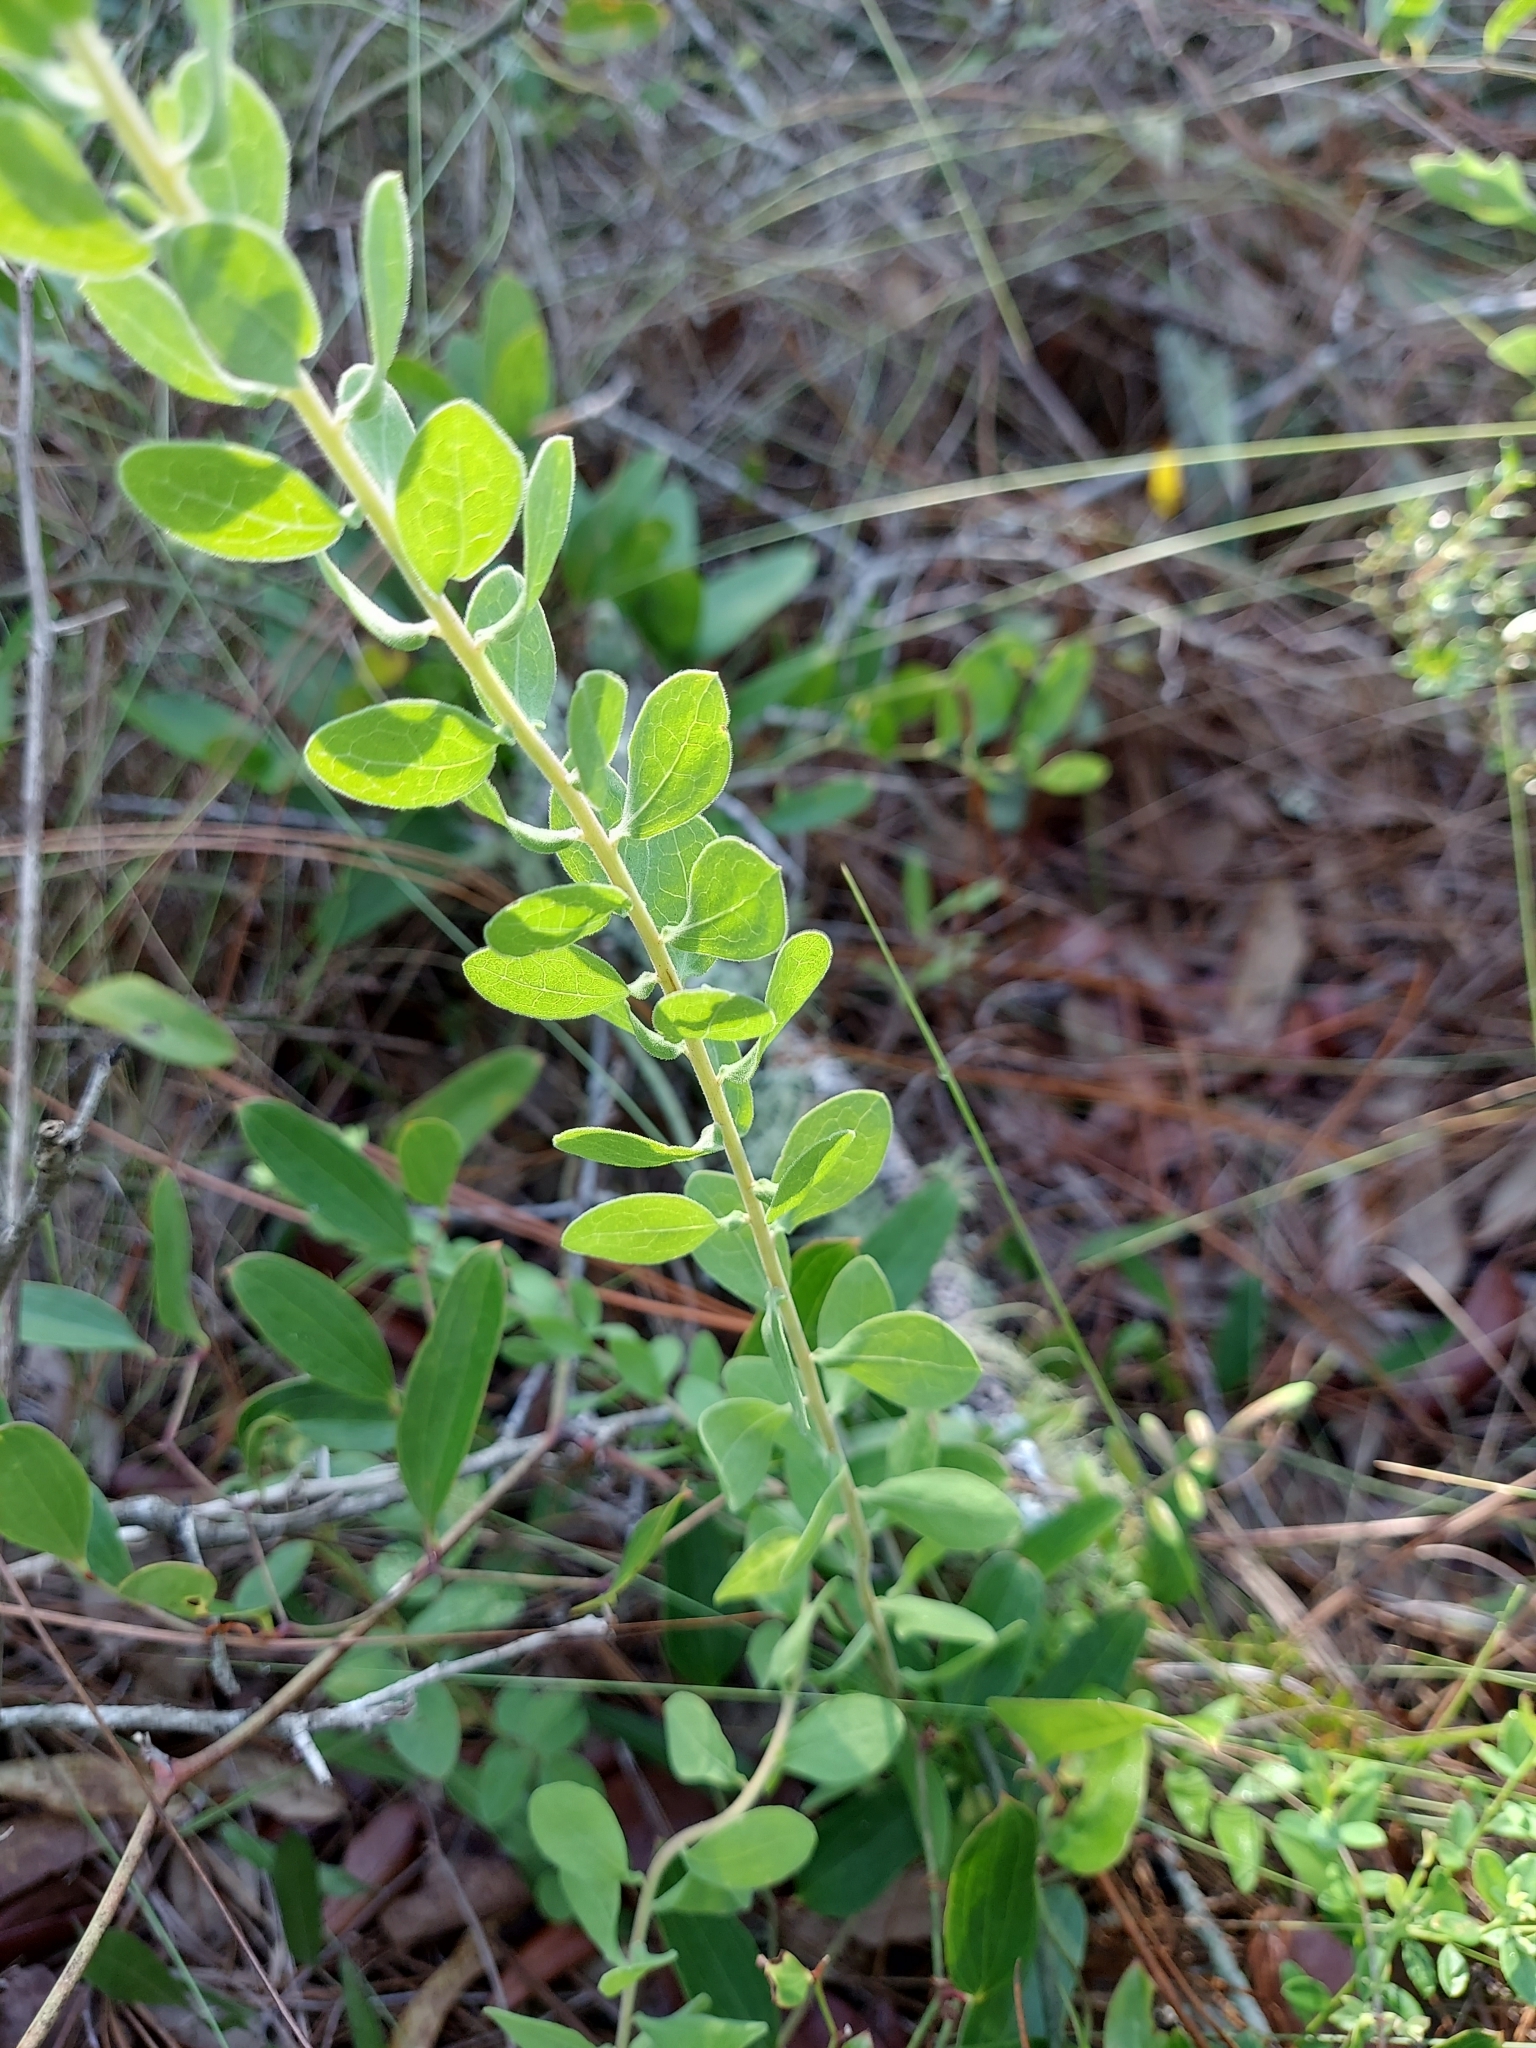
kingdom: Plantae
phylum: Tracheophyta
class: Magnoliopsida
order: Asterales
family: Asteraceae
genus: Sericocarpus
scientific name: Sericocarpus tortifolius
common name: Dixie aster
